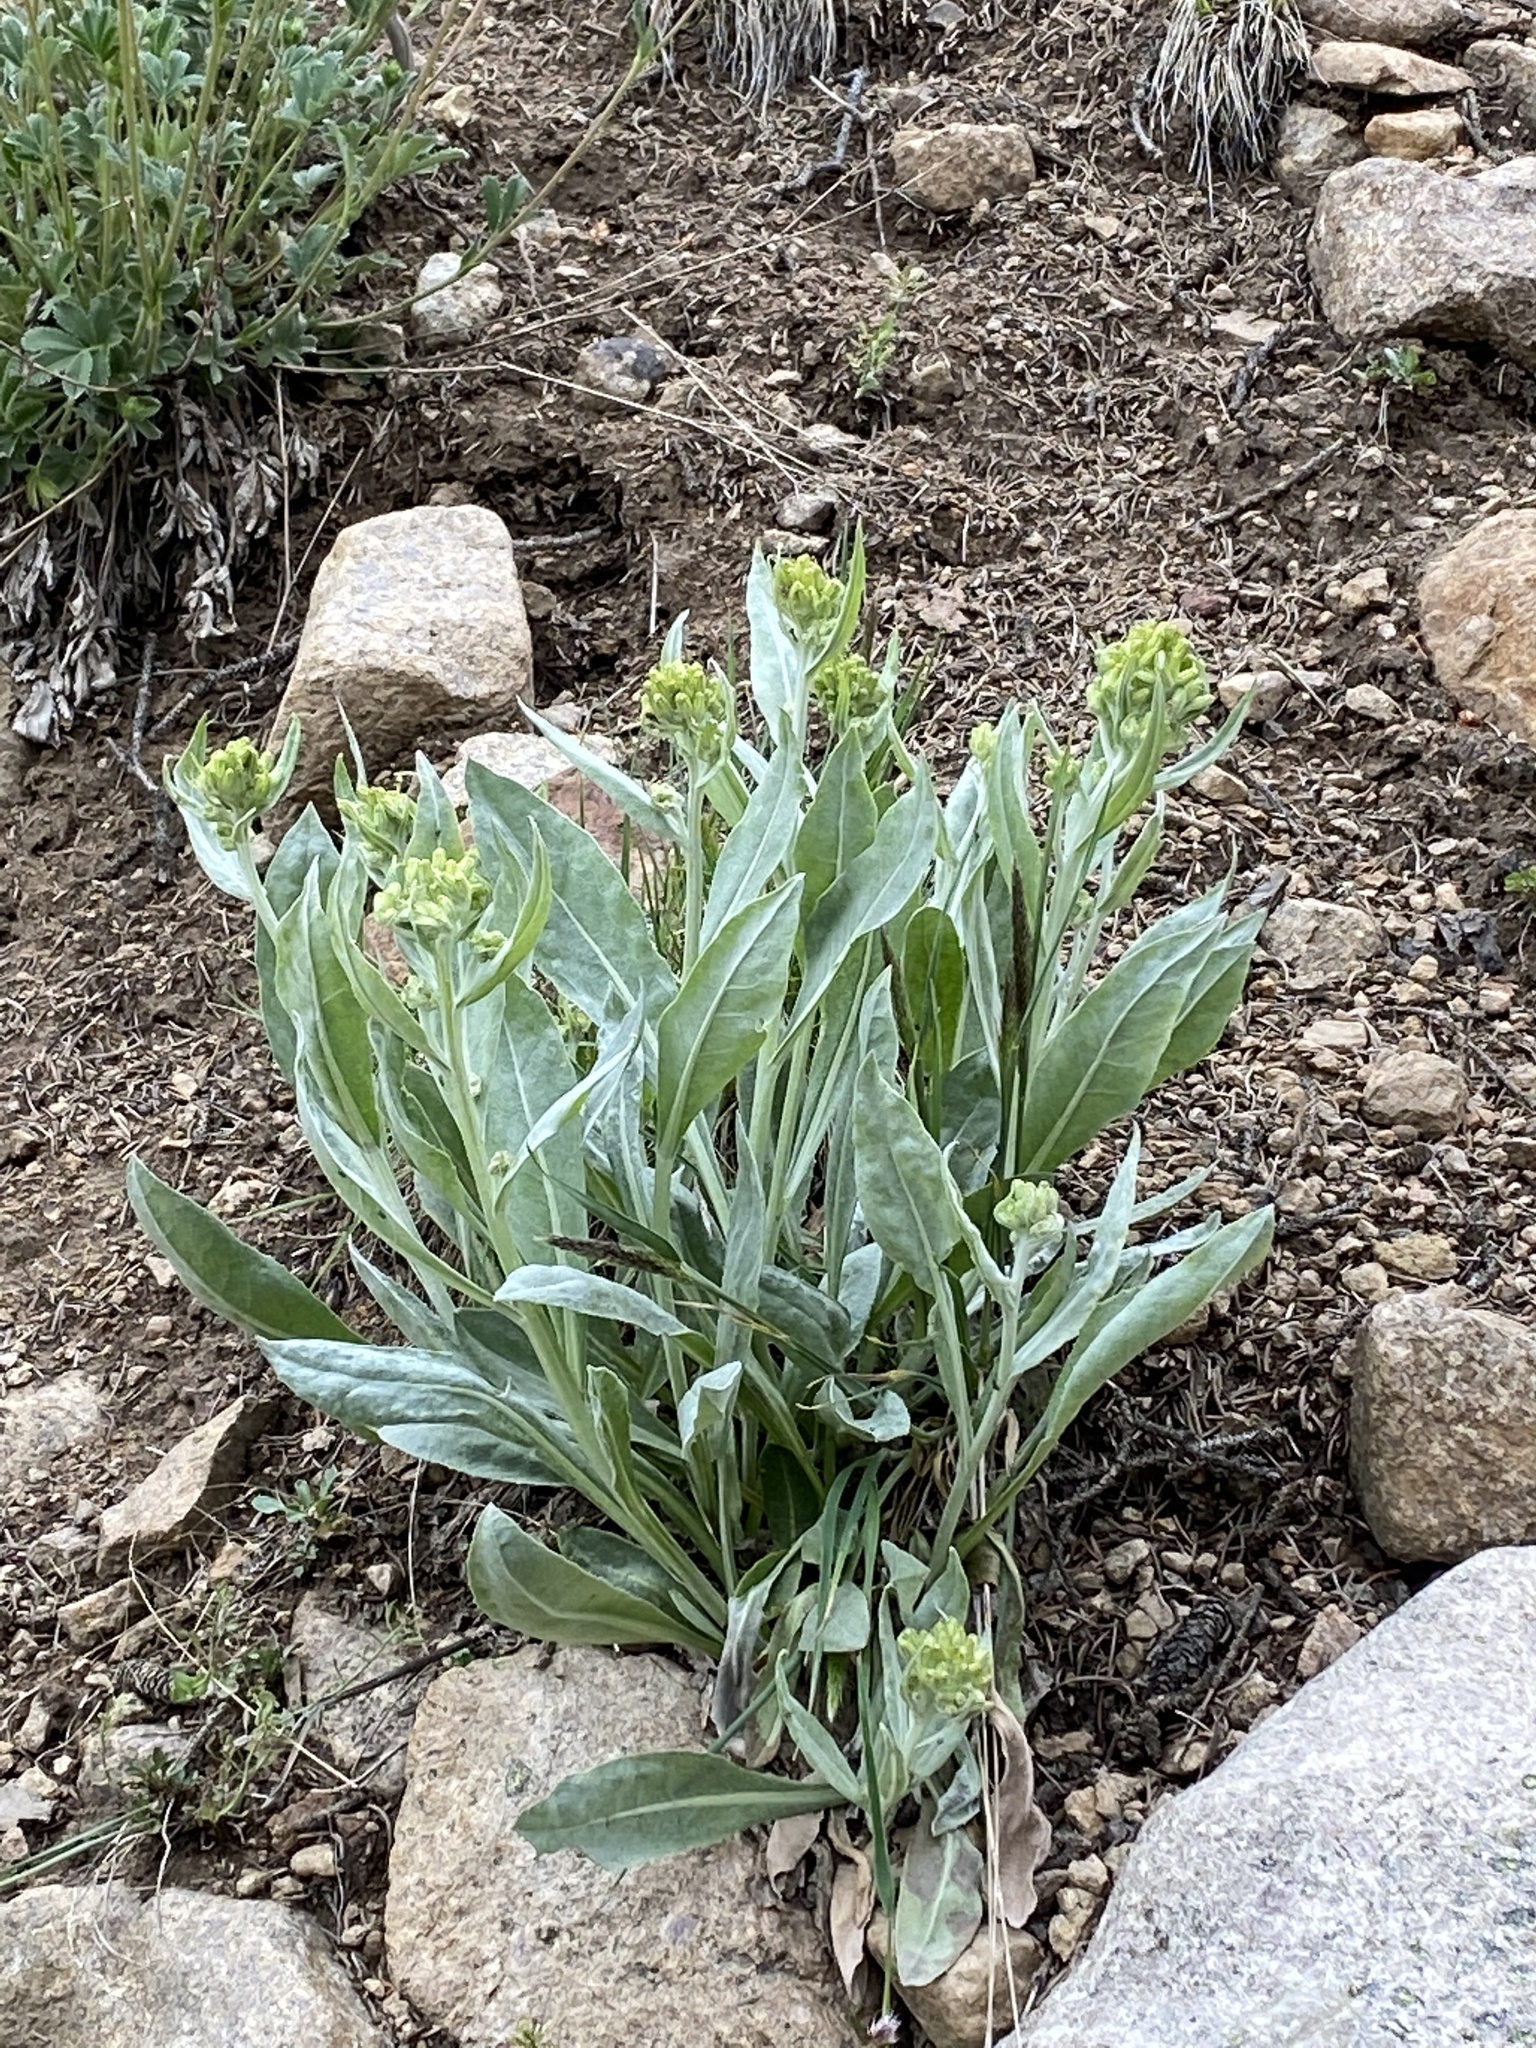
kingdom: Plantae
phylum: Tracheophyta
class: Magnoliopsida
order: Asterales
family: Asteraceae
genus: Senecio
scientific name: Senecio atratus
